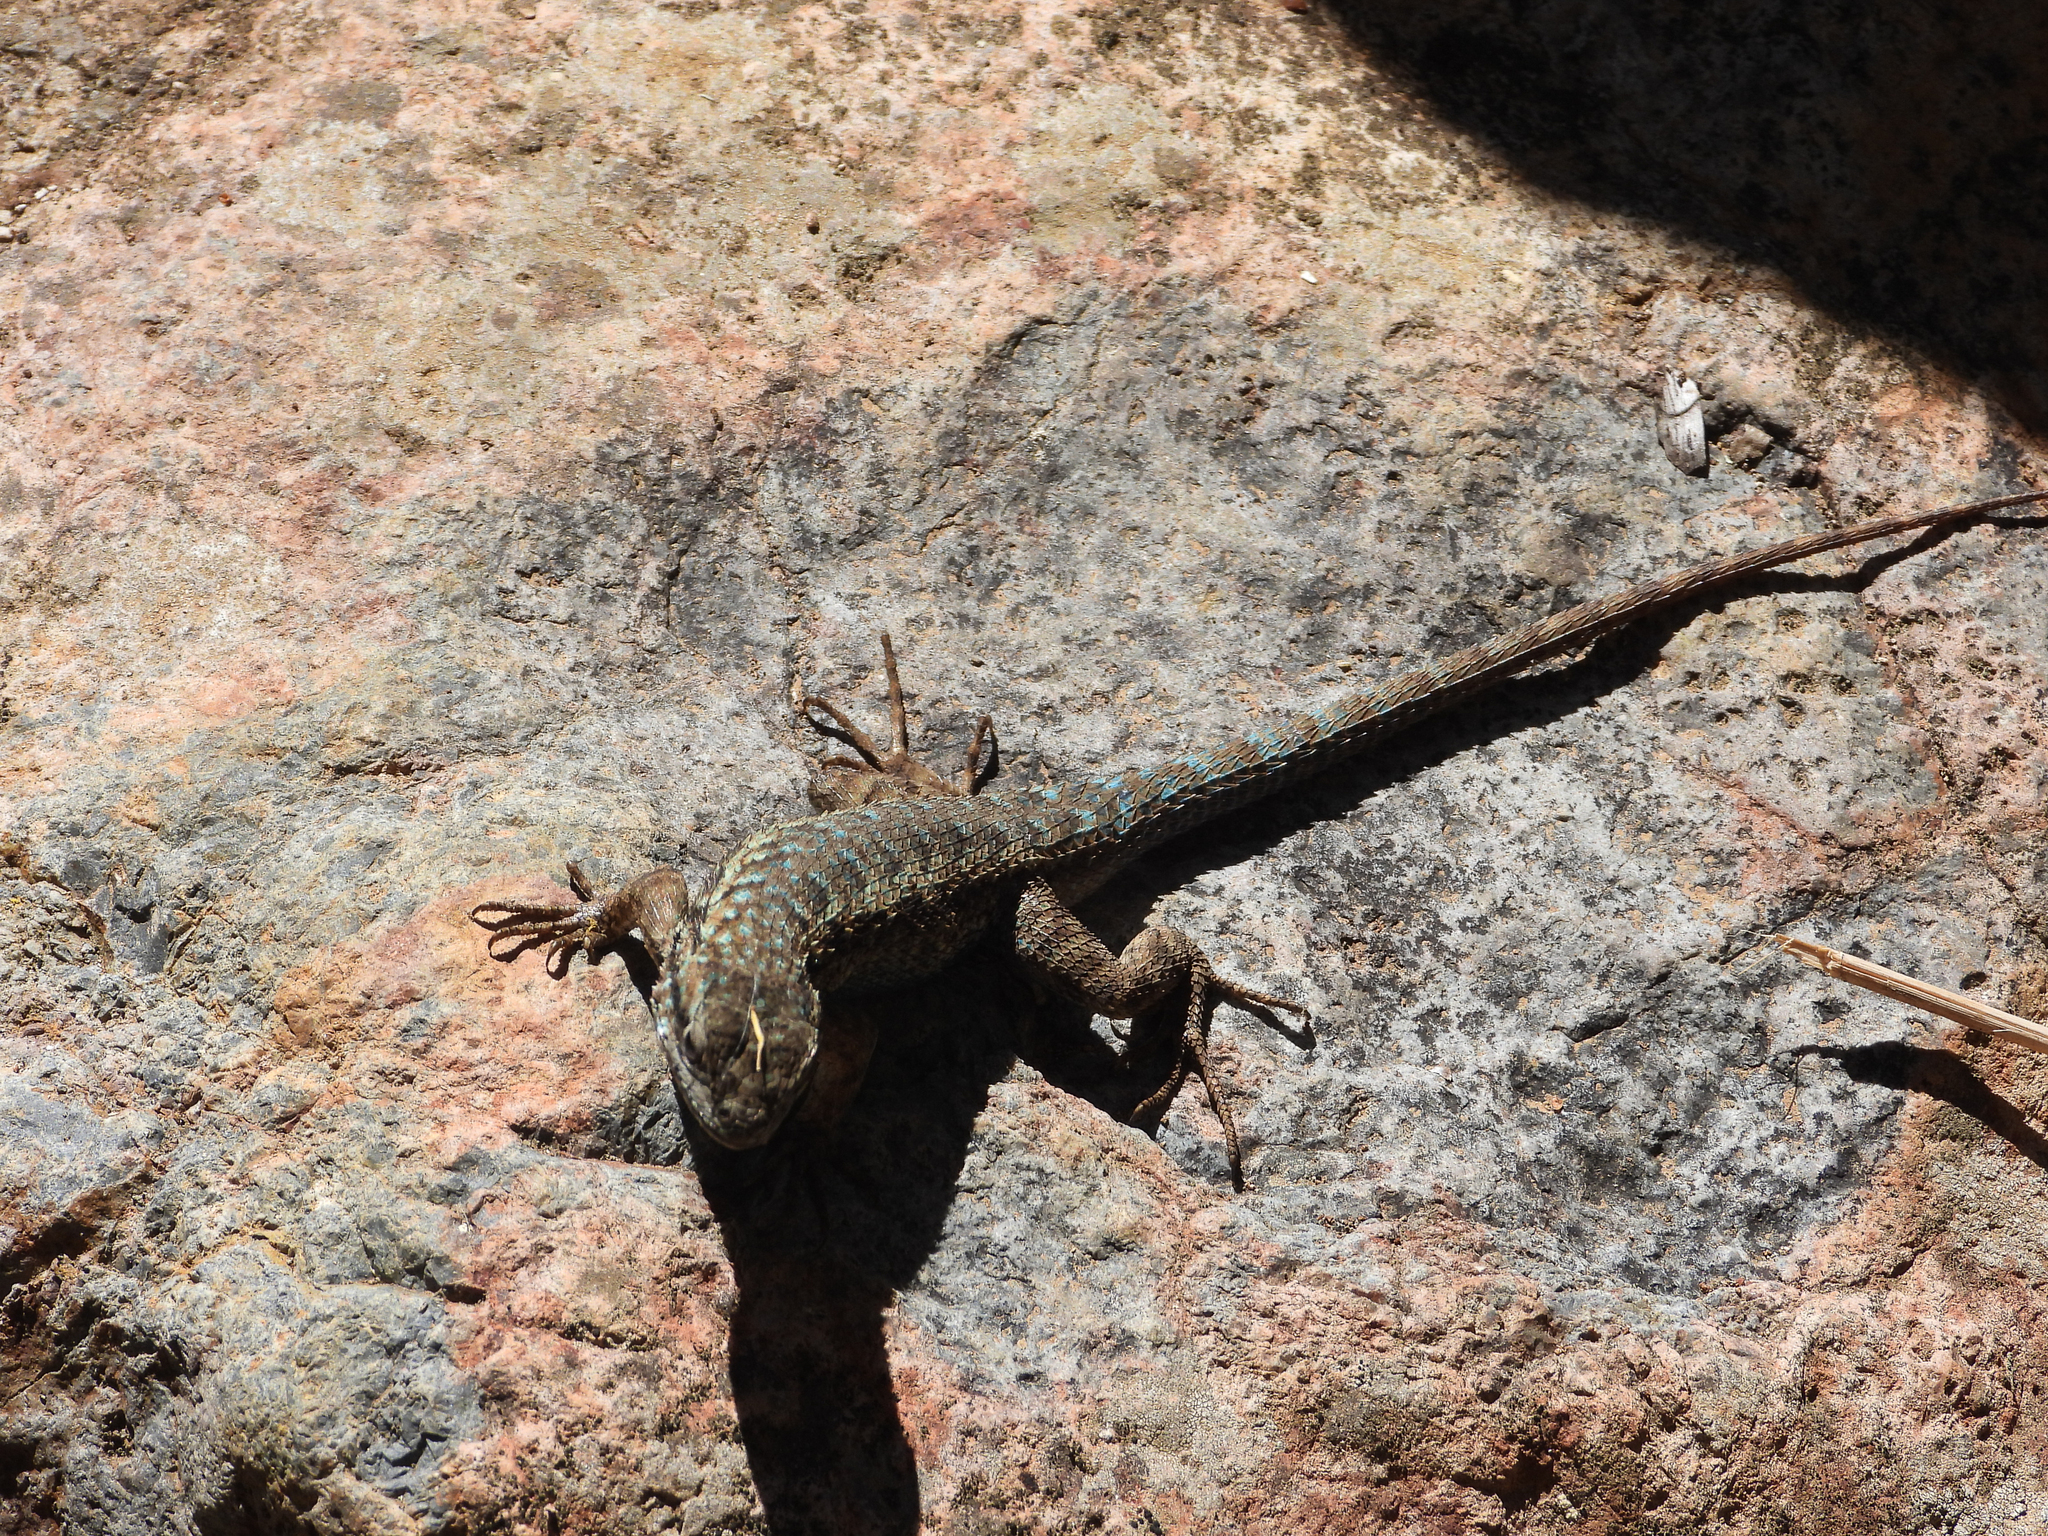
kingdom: Animalia
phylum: Chordata
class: Squamata
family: Phrynosomatidae
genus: Sceloporus
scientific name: Sceloporus occidentalis
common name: Western fence lizard
